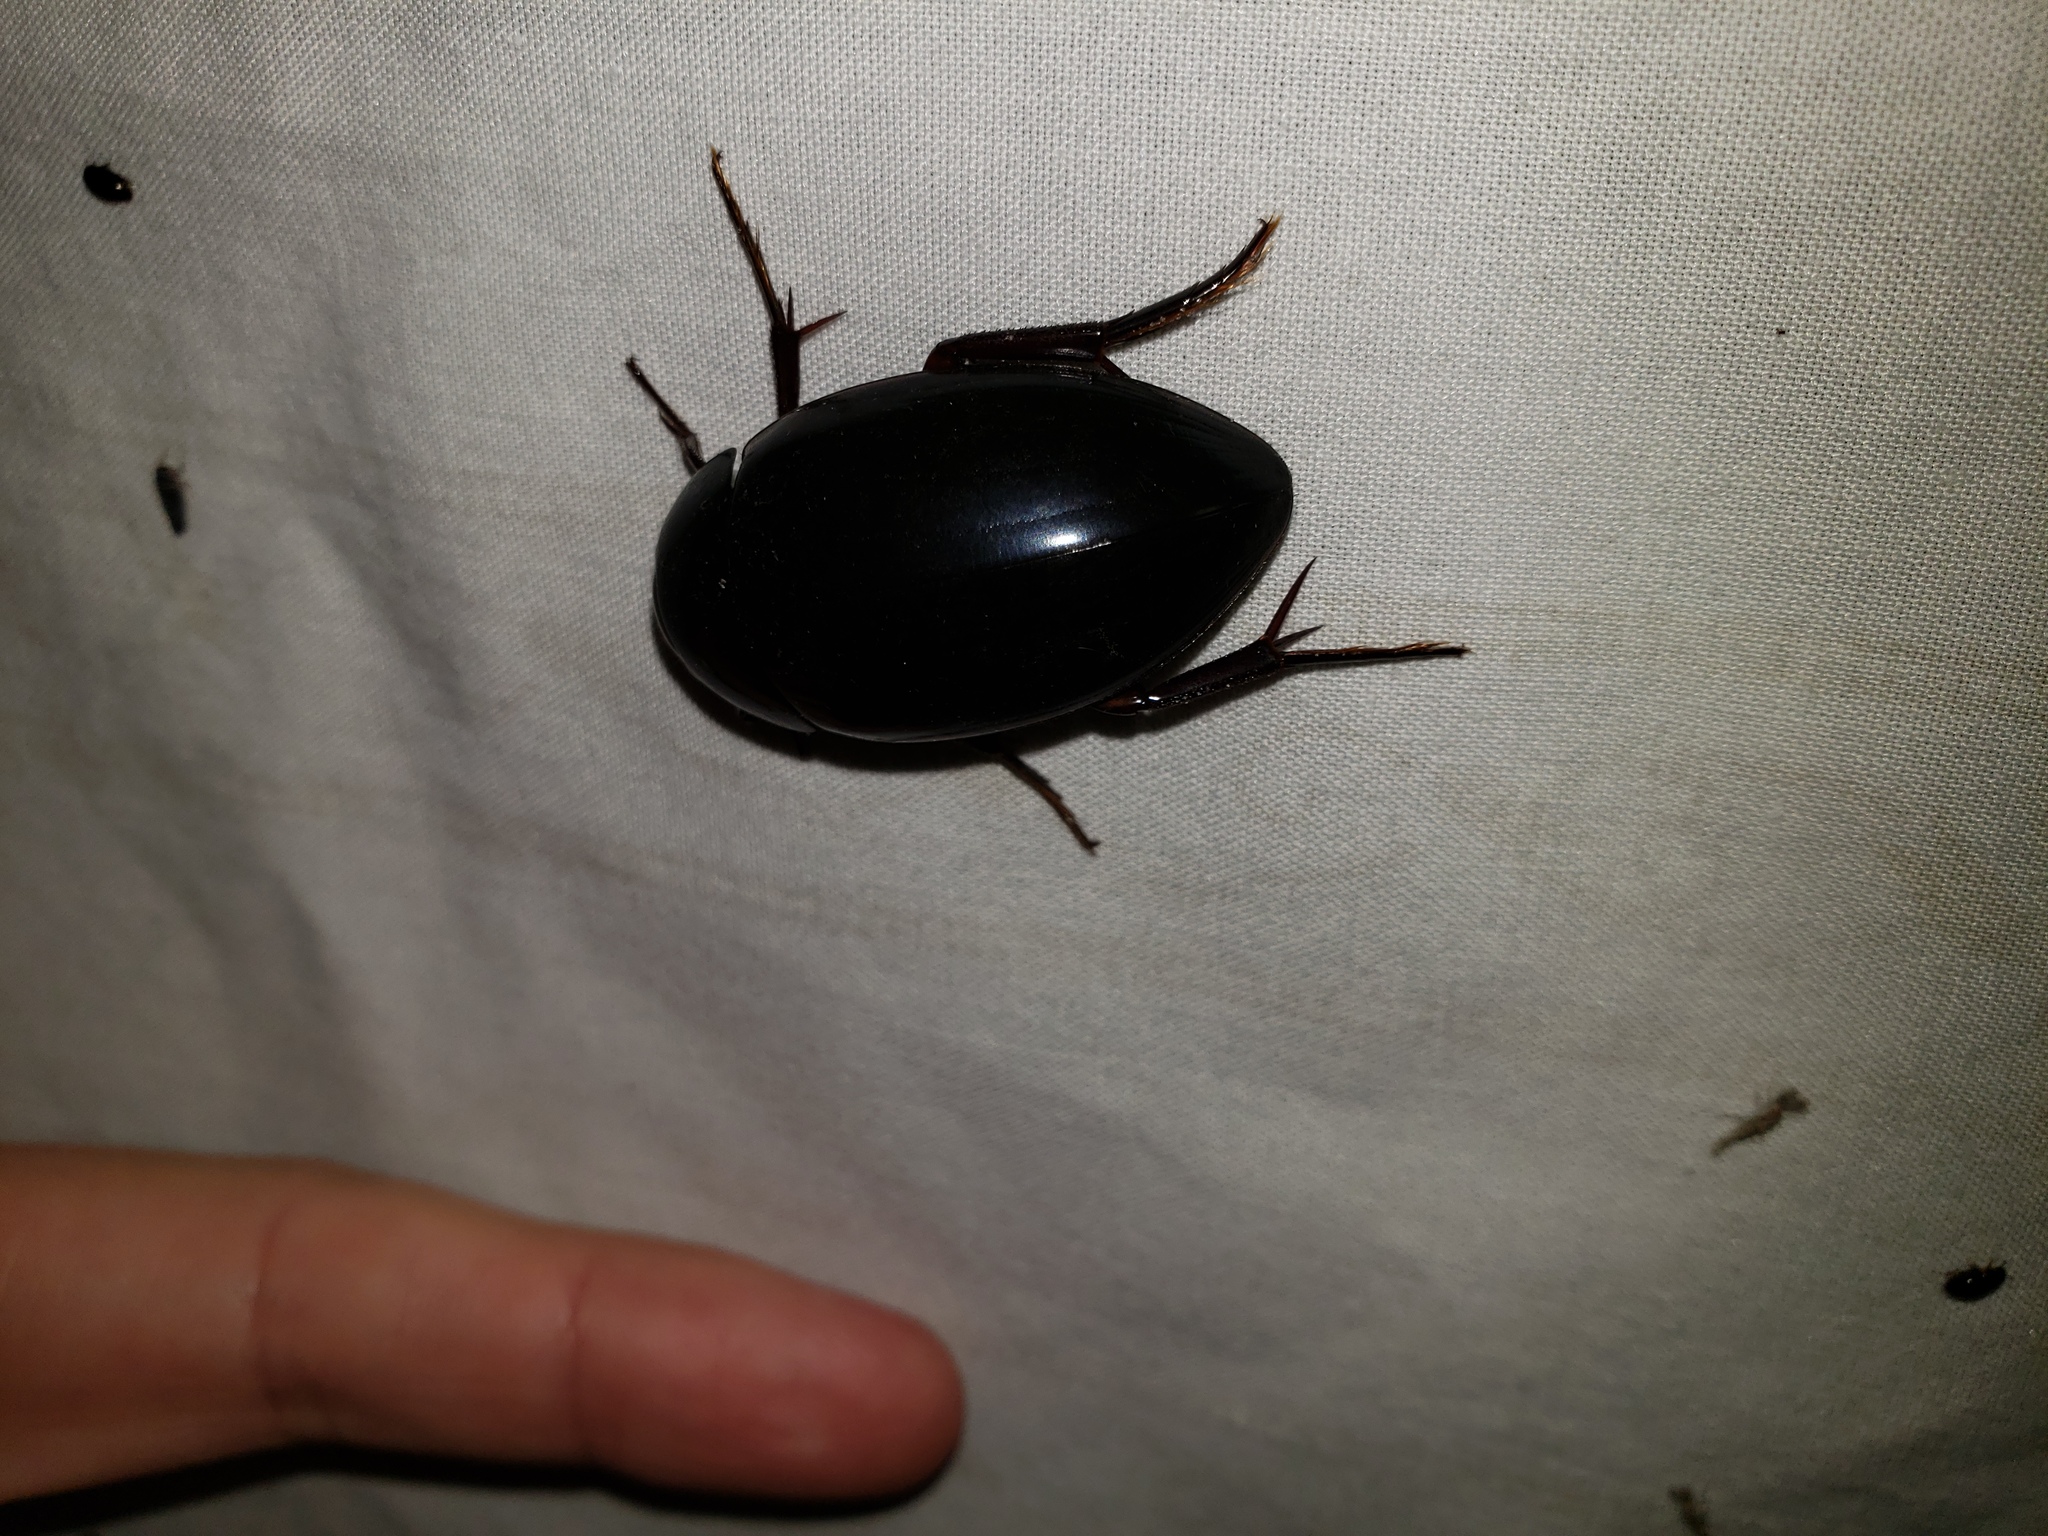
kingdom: Animalia
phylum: Arthropoda
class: Insecta
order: Coleoptera
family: Hydrophilidae
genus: Hydrophilus
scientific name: Hydrophilus ovatus
